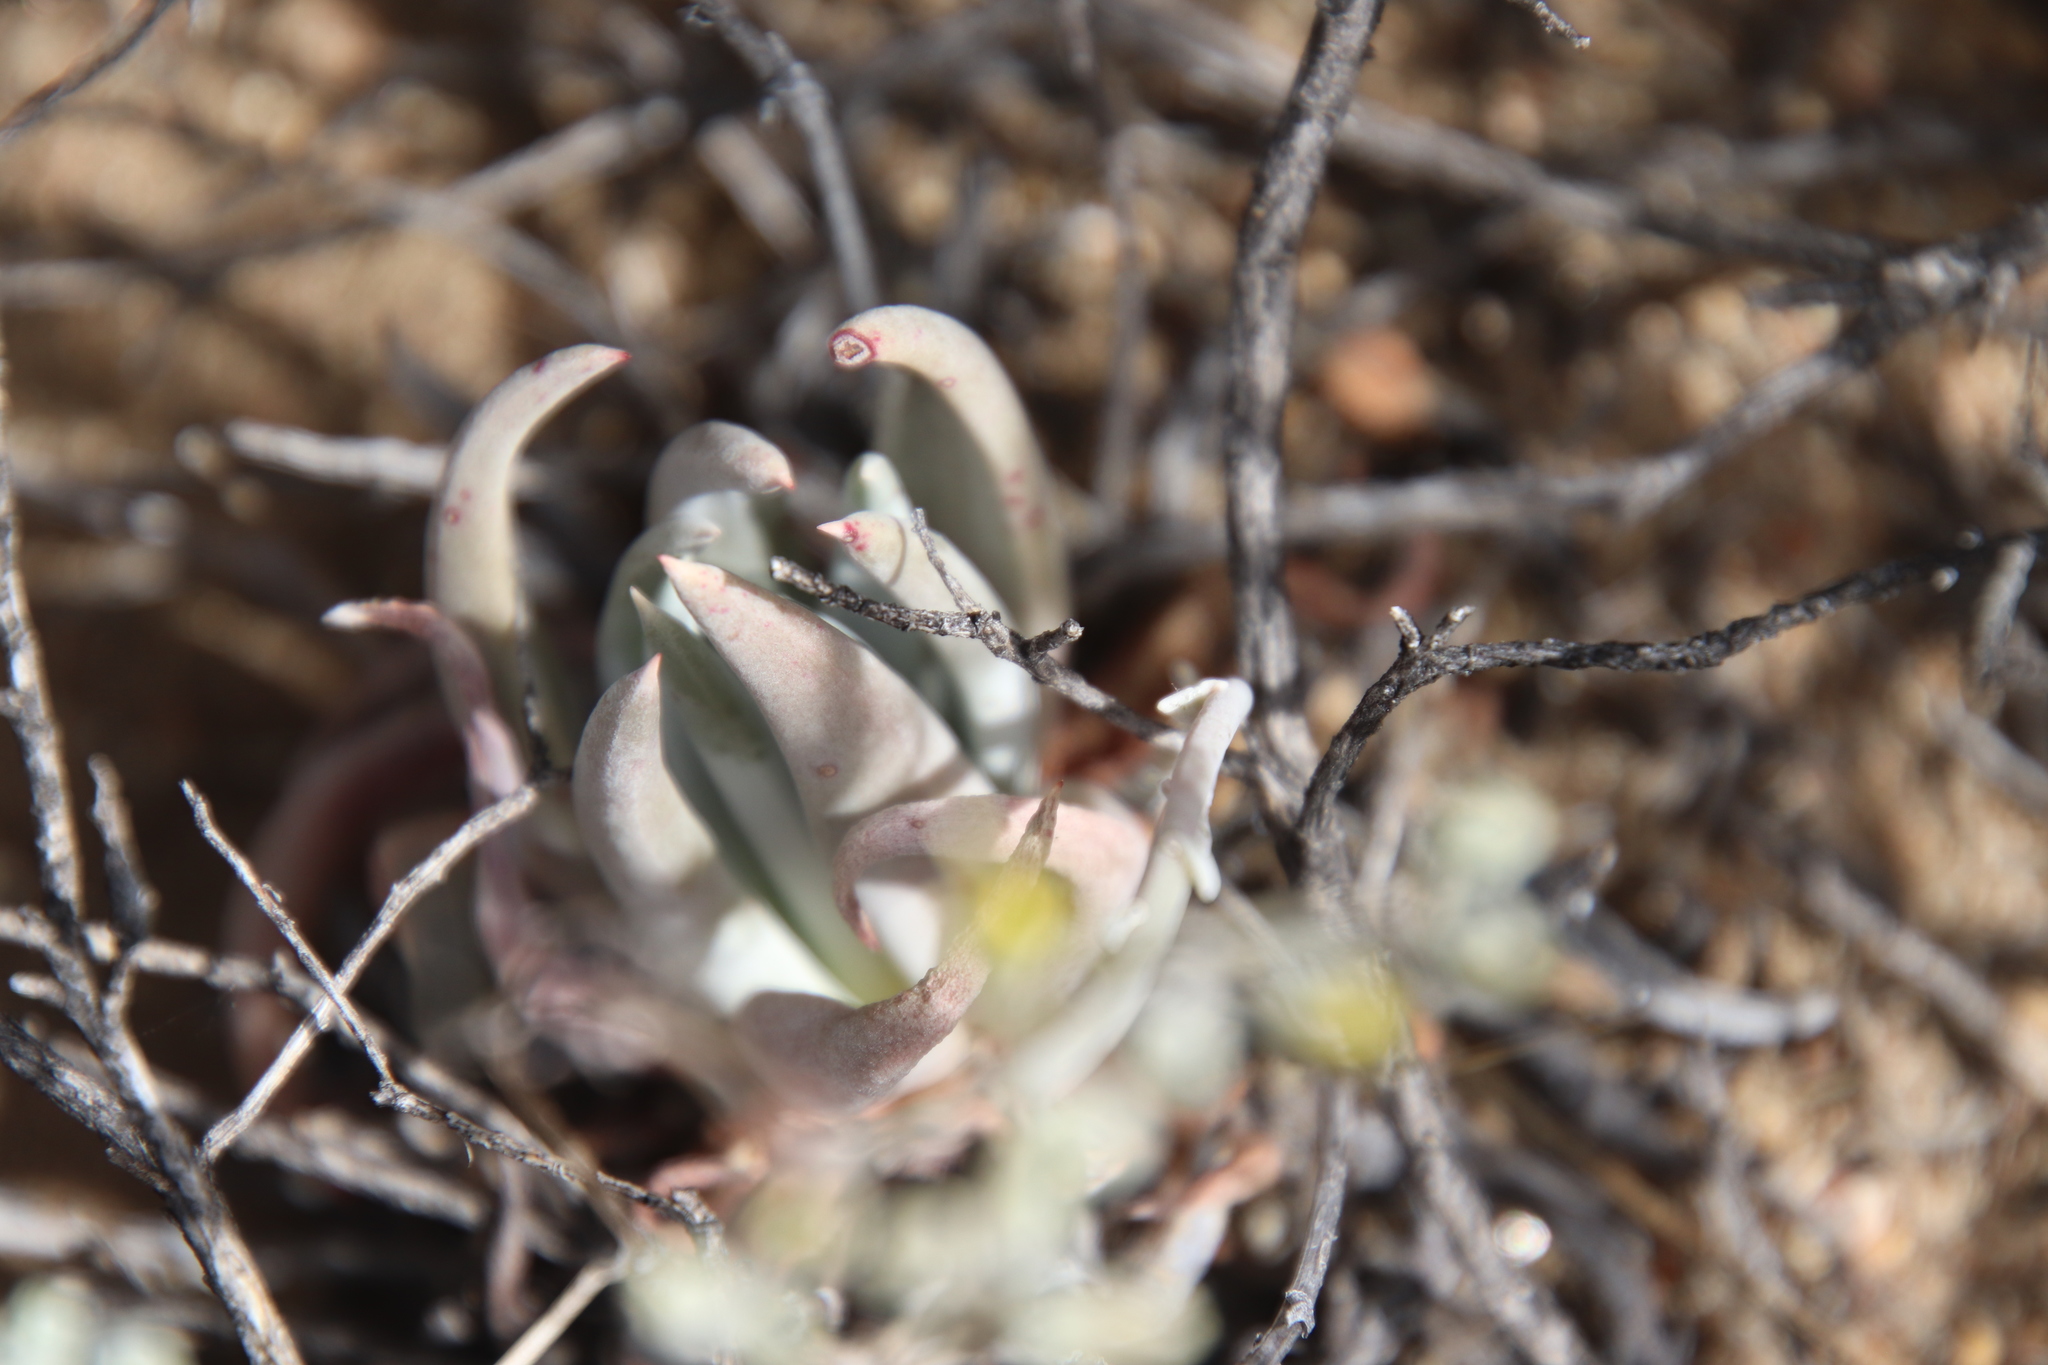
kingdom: Plantae
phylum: Tracheophyta
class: Magnoliopsida
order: Saxifragales
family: Crassulaceae
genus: Dudleya
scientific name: Dudleya abramsii
